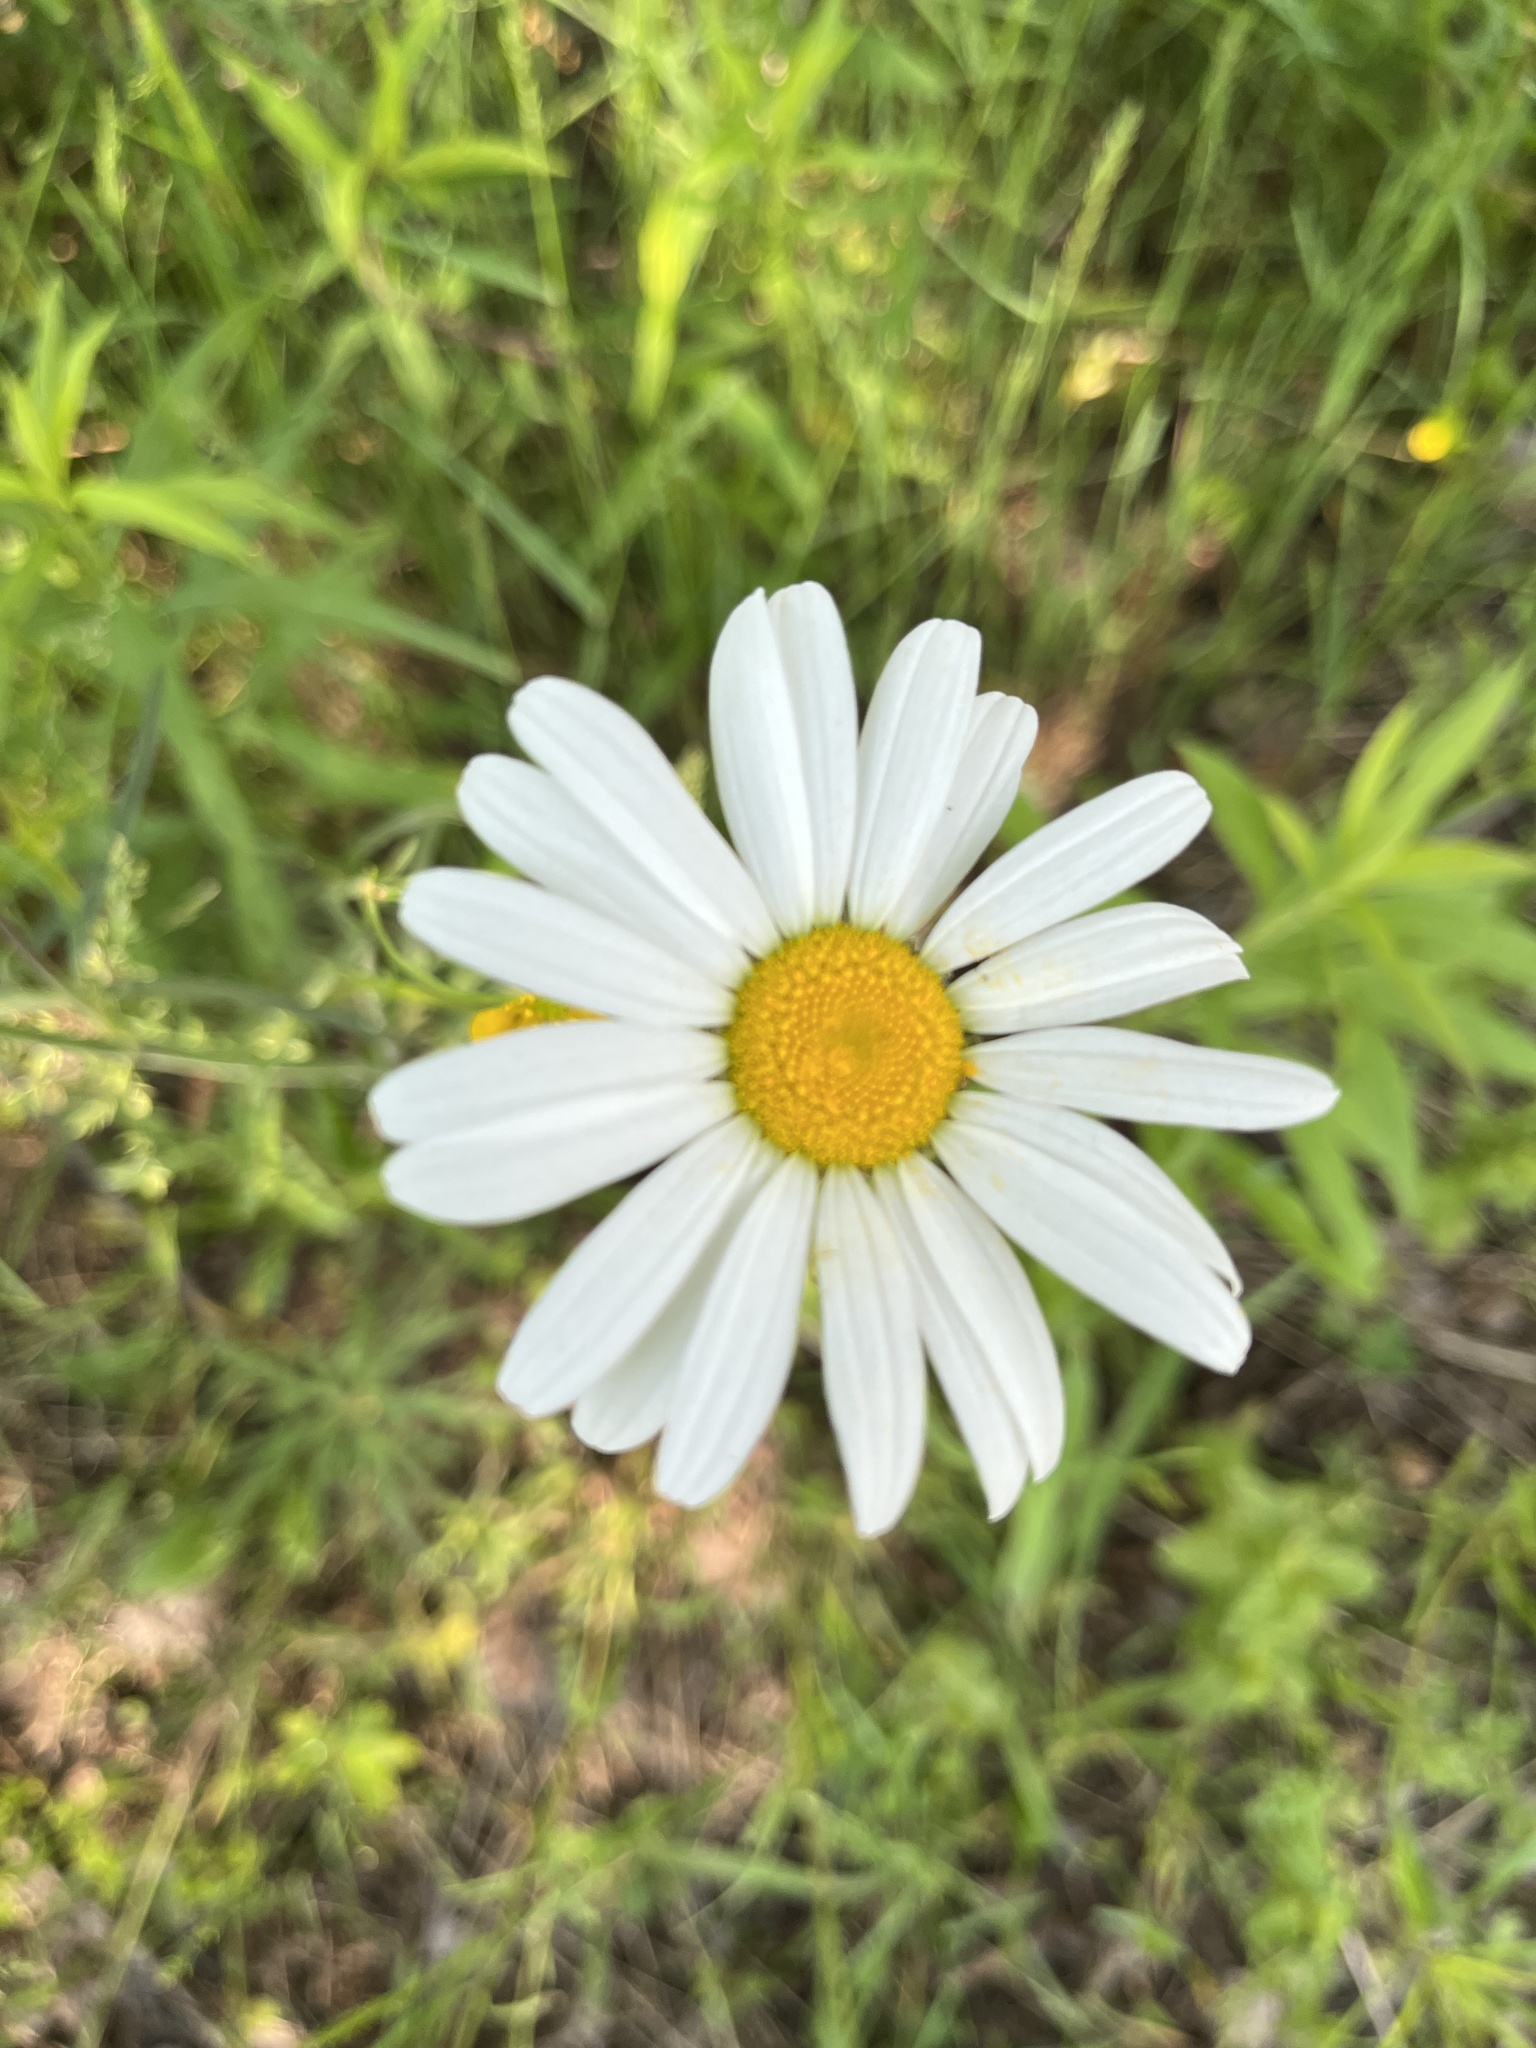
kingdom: Plantae
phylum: Tracheophyta
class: Magnoliopsida
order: Asterales
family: Asteraceae
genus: Leucanthemum
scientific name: Leucanthemum vulgare
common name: Oxeye daisy
